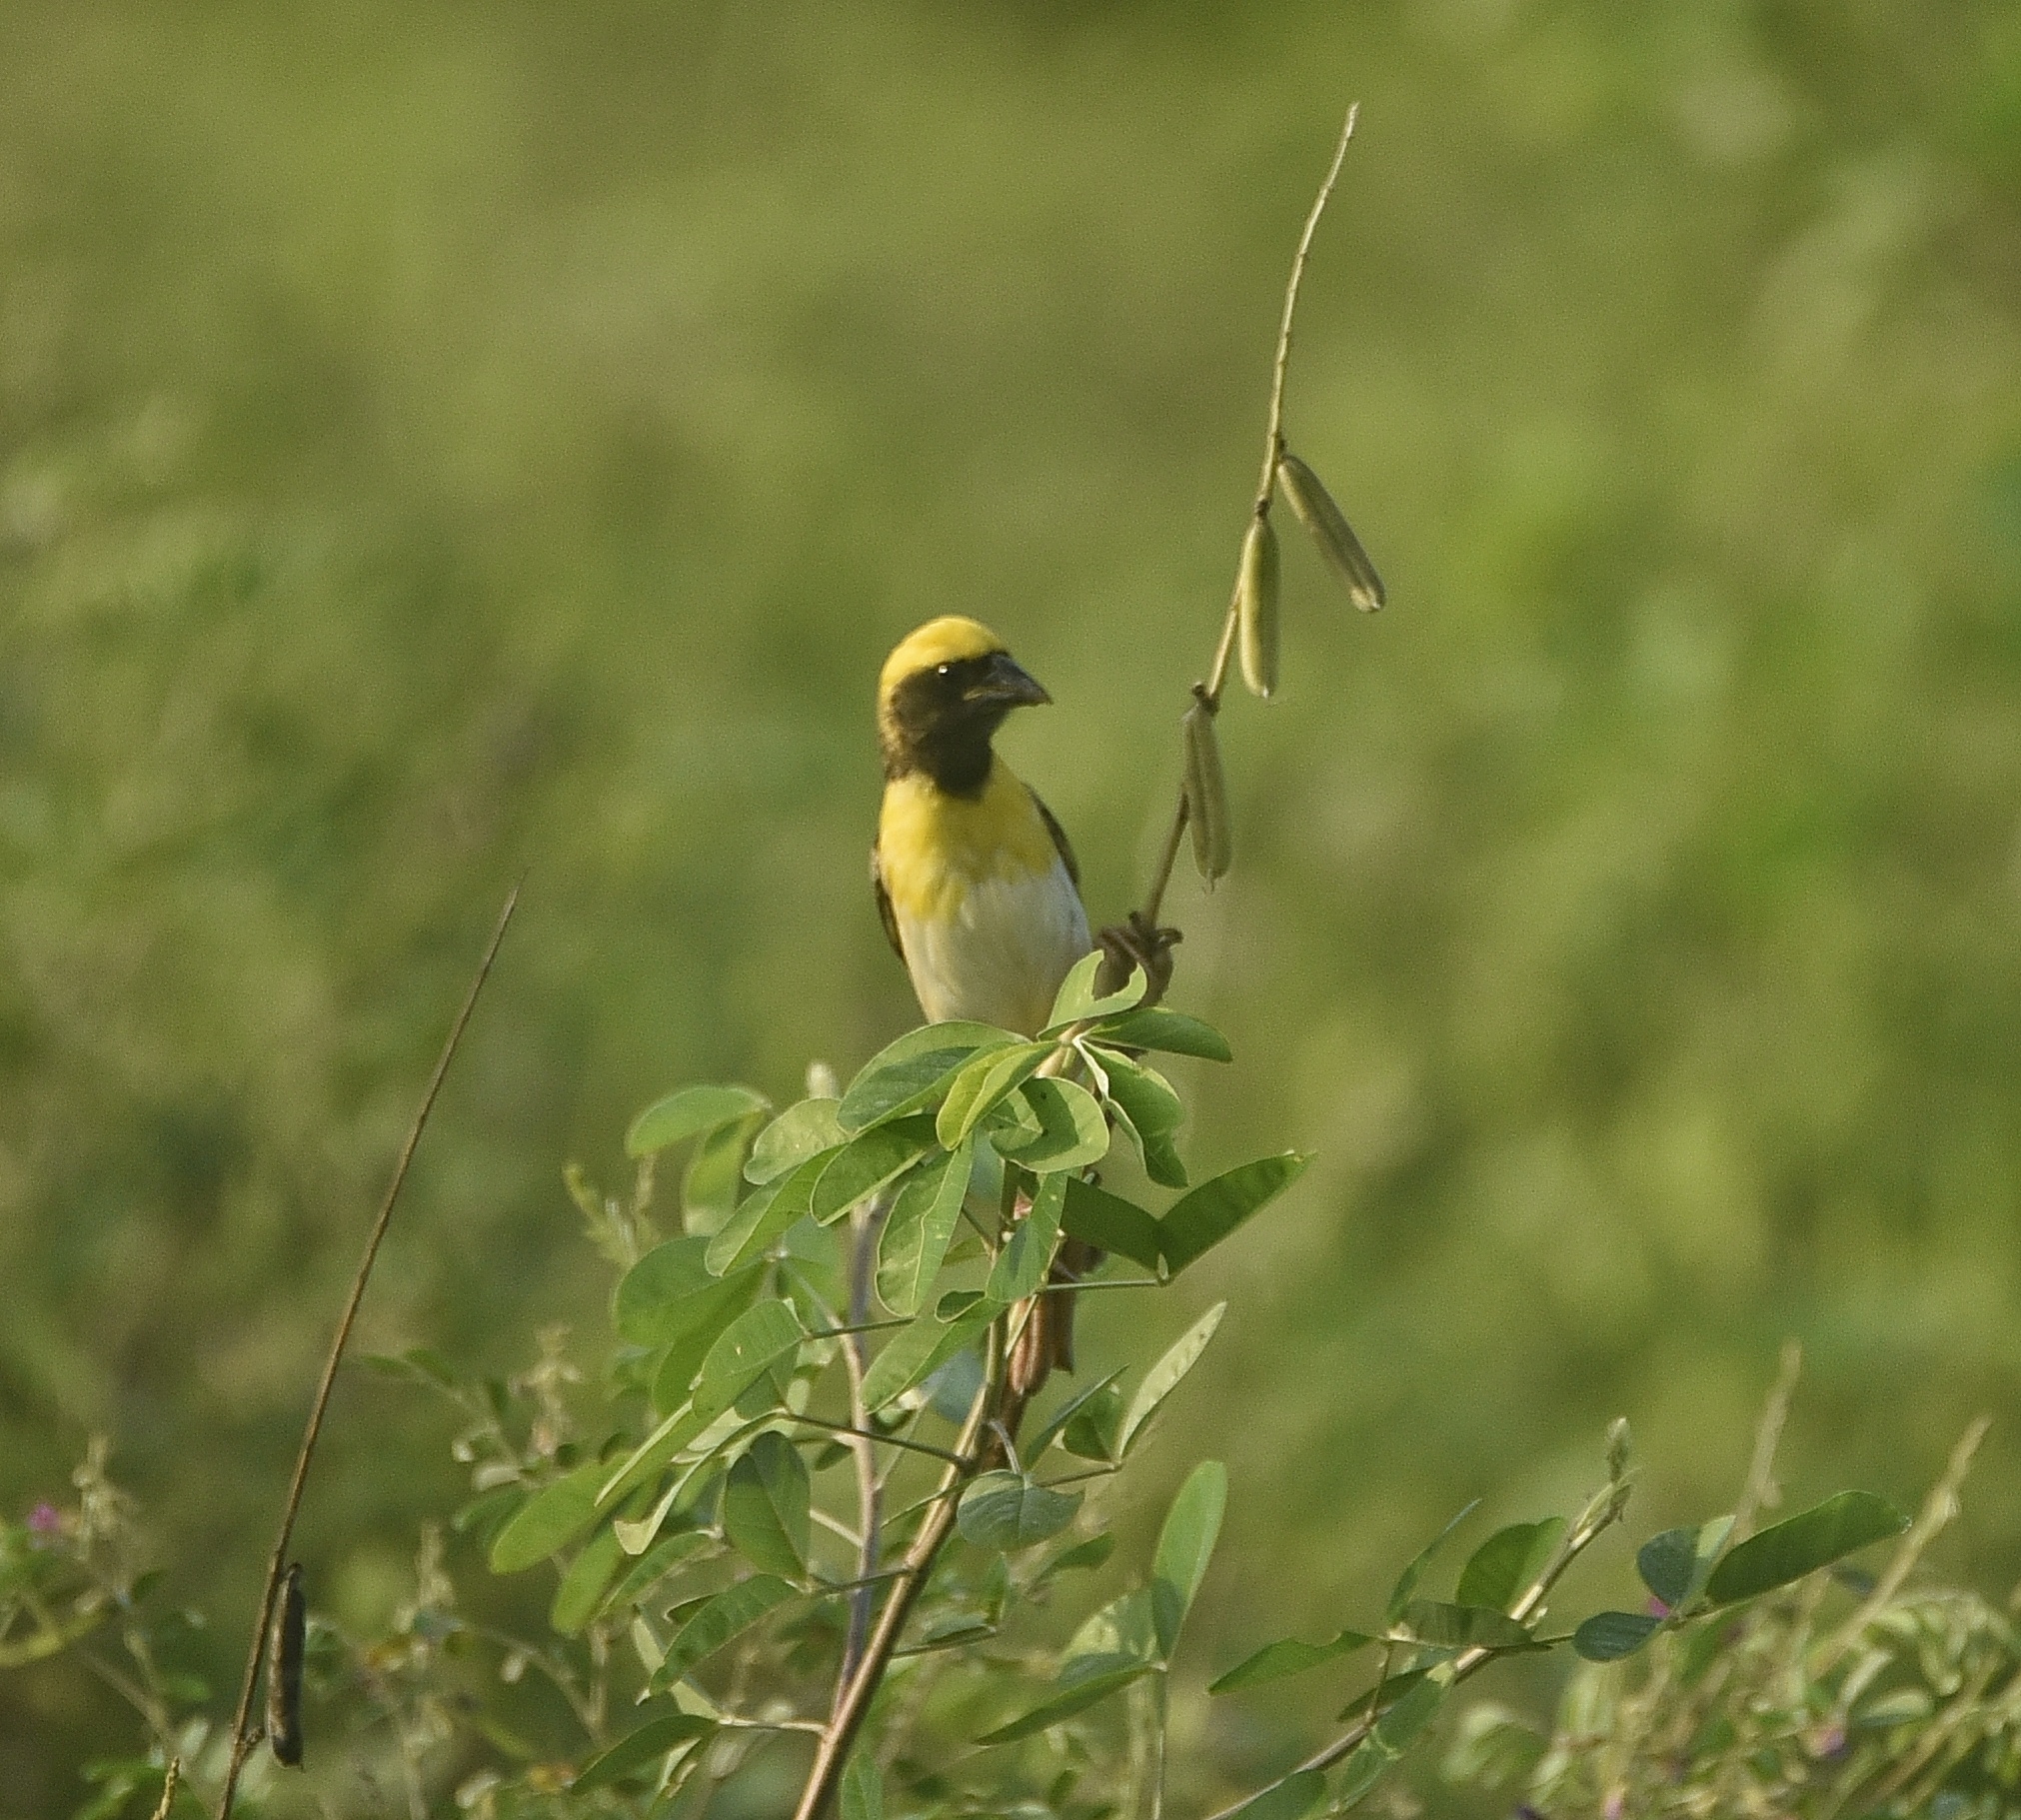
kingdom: Animalia
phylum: Chordata
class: Aves
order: Passeriformes
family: Ploceidae
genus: Ploceus
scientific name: Ploceus philippinus
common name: Baya weaver
